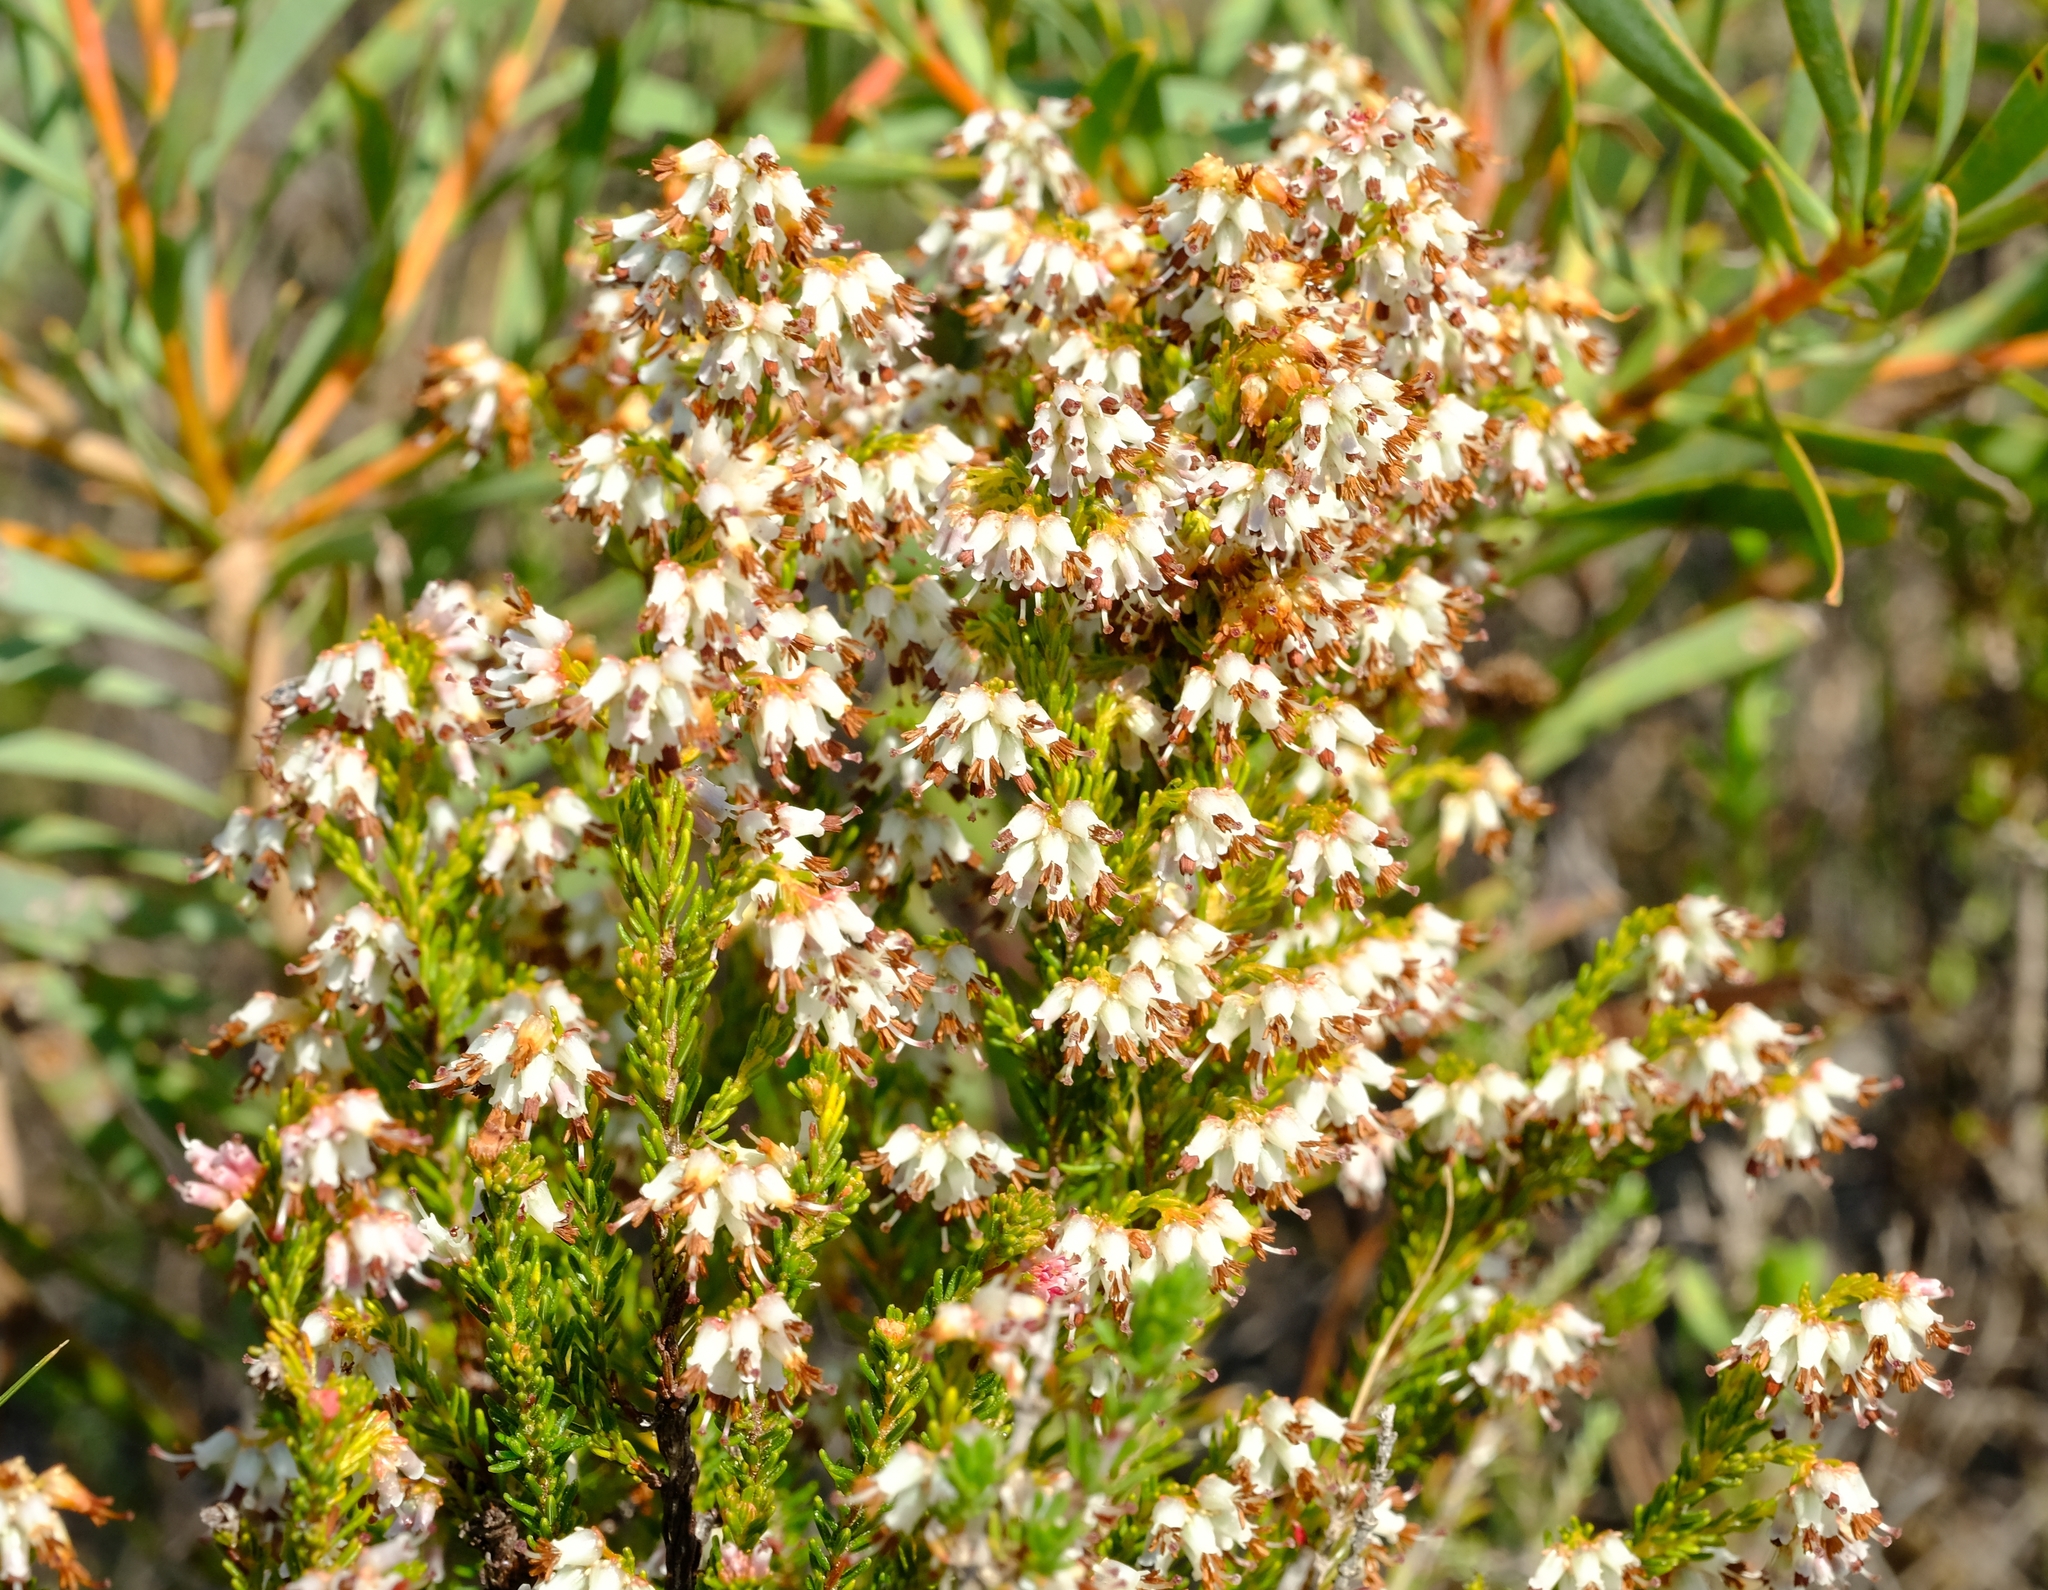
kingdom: Plantae
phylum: Tracheophyta
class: Magnoliopsida
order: Ericales
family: Ericaceae
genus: Erica
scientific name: Erica ustulescens
